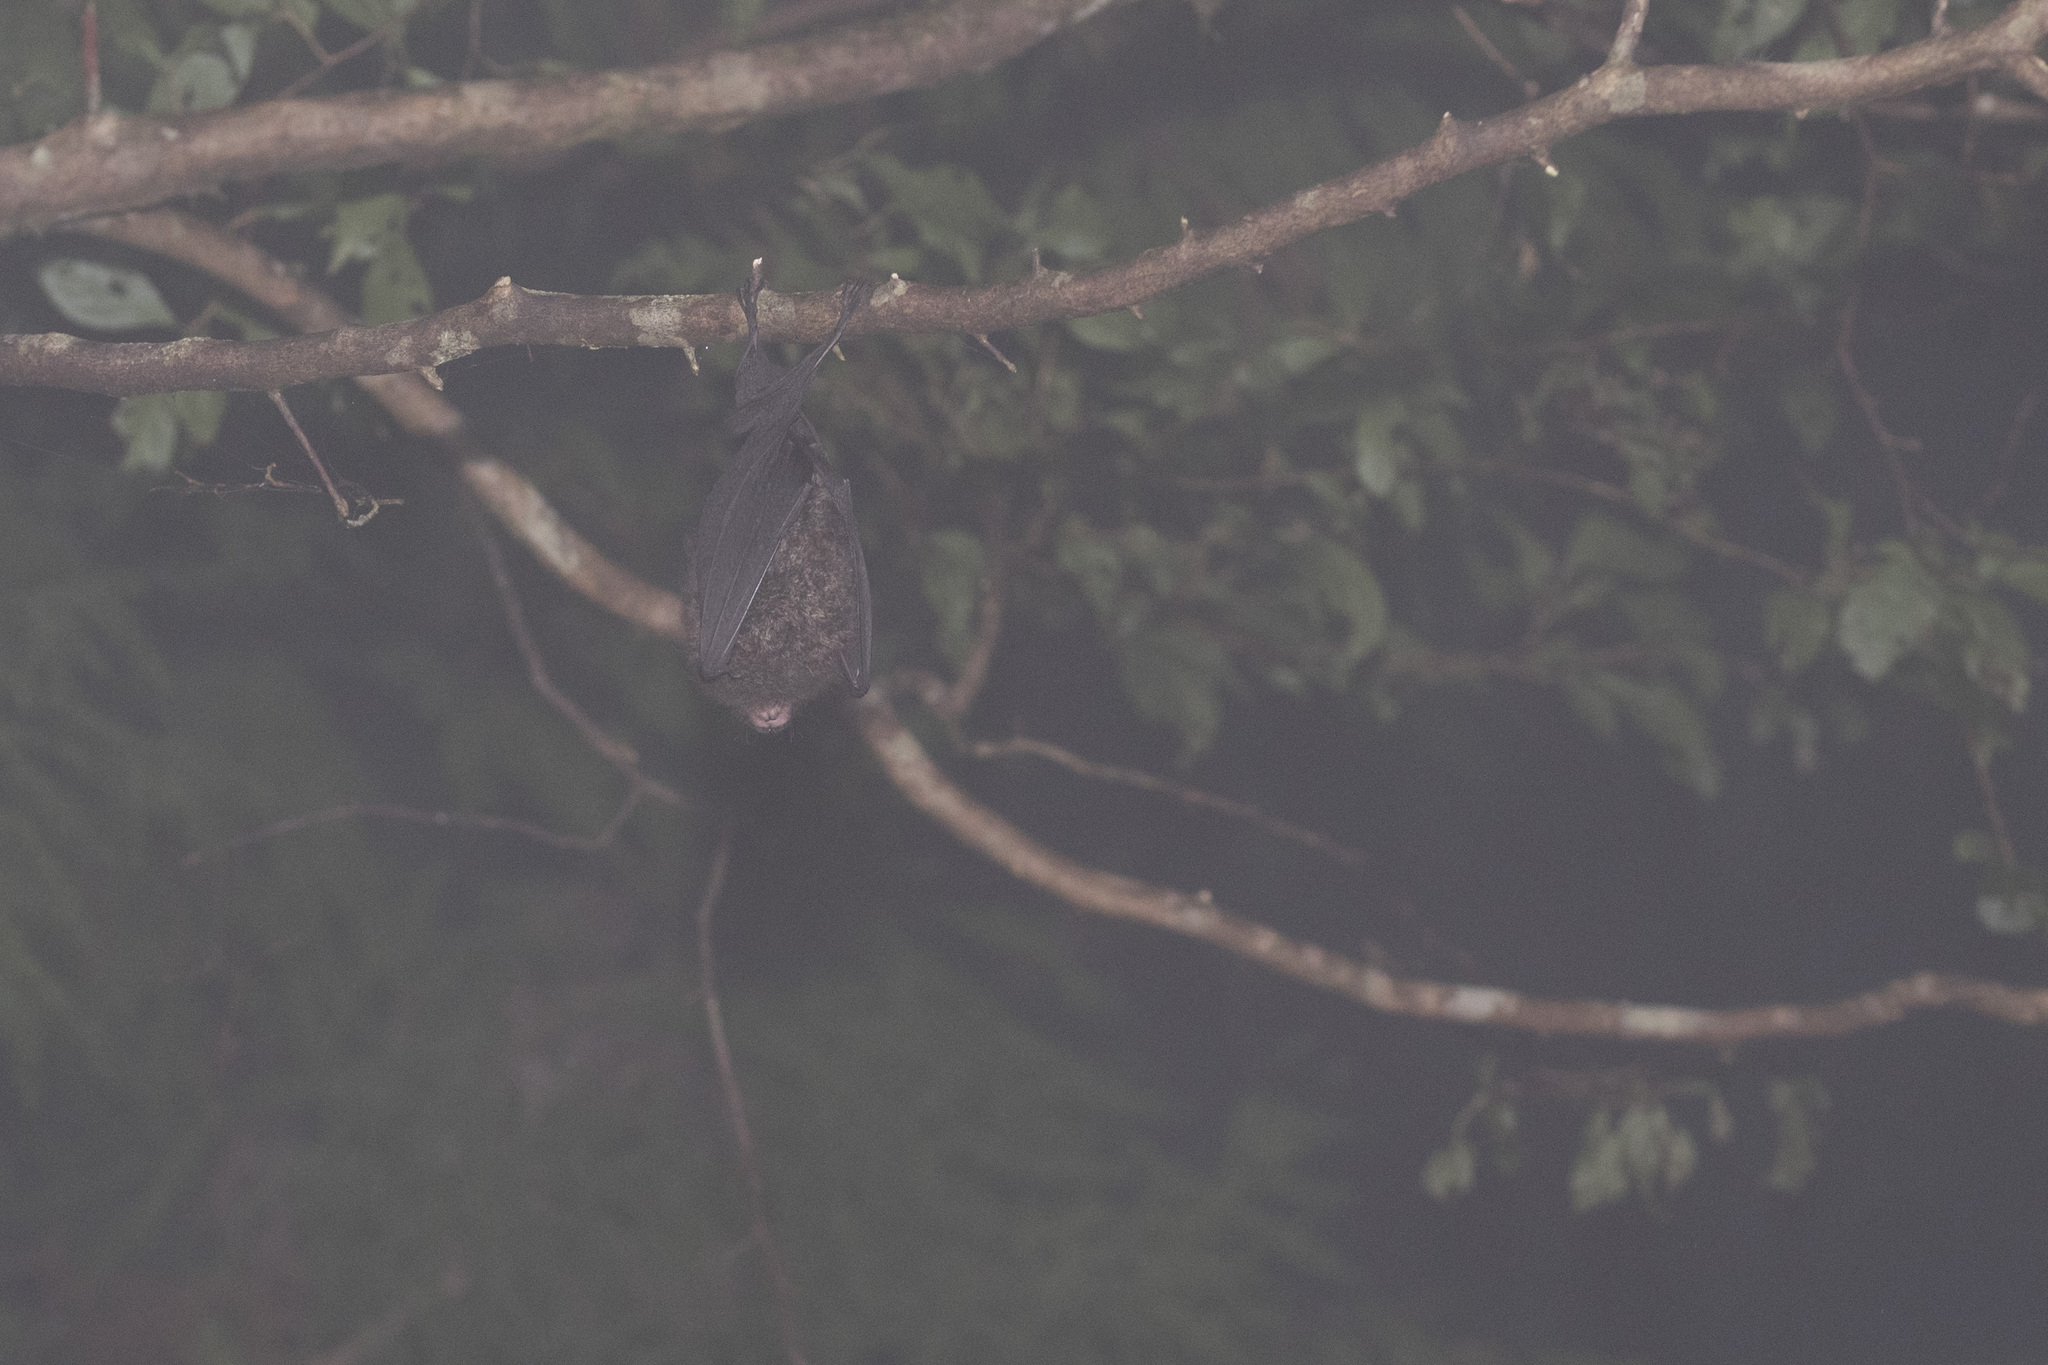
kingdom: Animalia
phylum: Chordata
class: Mammalia
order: Chiroptera
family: Rhinolophidae
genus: Rhinolophus
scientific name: Rhinolophus formosae
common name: Formosan woolly horseshoe bat
